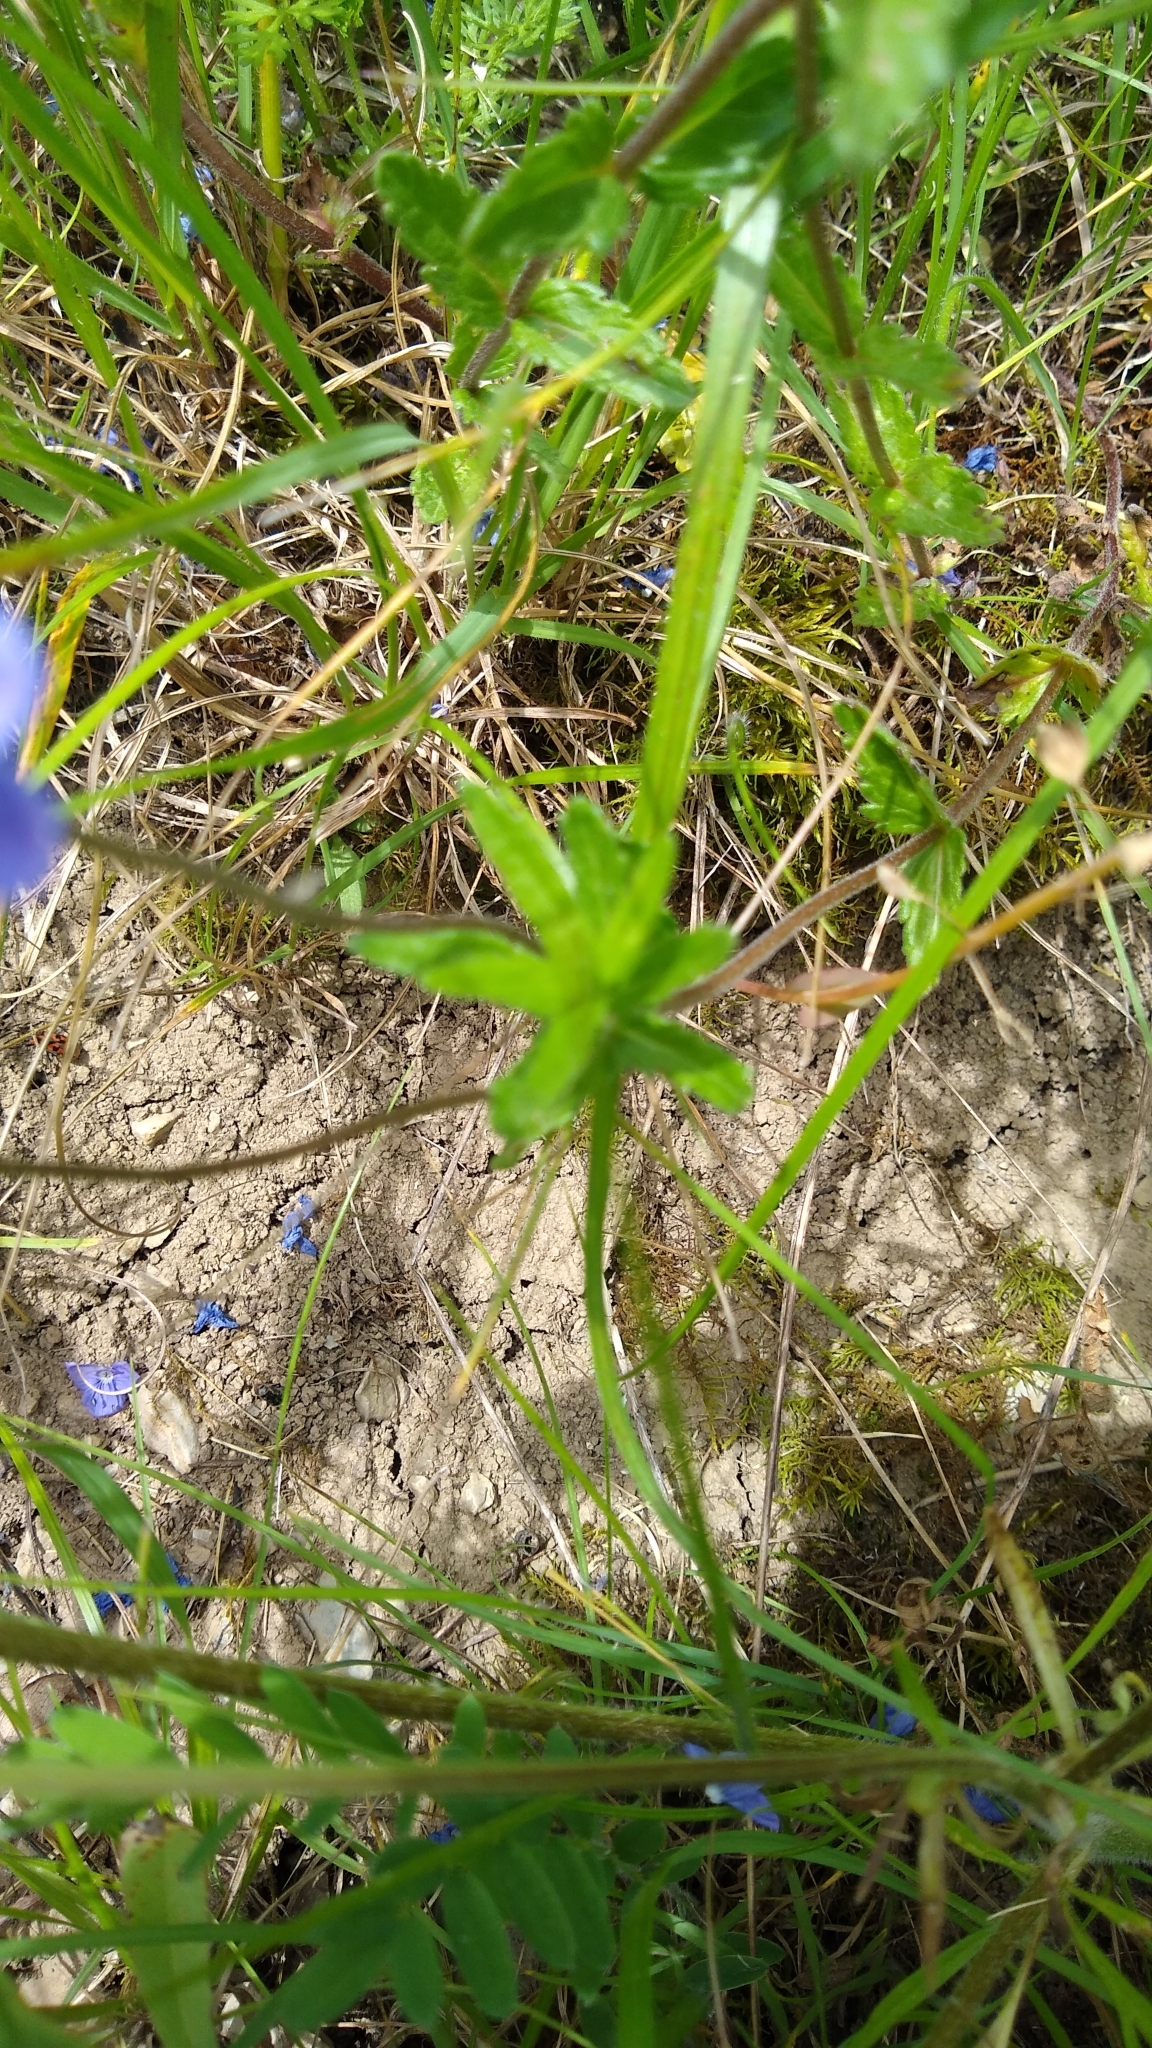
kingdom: Plantae
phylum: Tracheophyta
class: Magnoliopsida
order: Lamiales
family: Plantaginaceae
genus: Veronica
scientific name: Veronica teucrium
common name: Large speedwell
